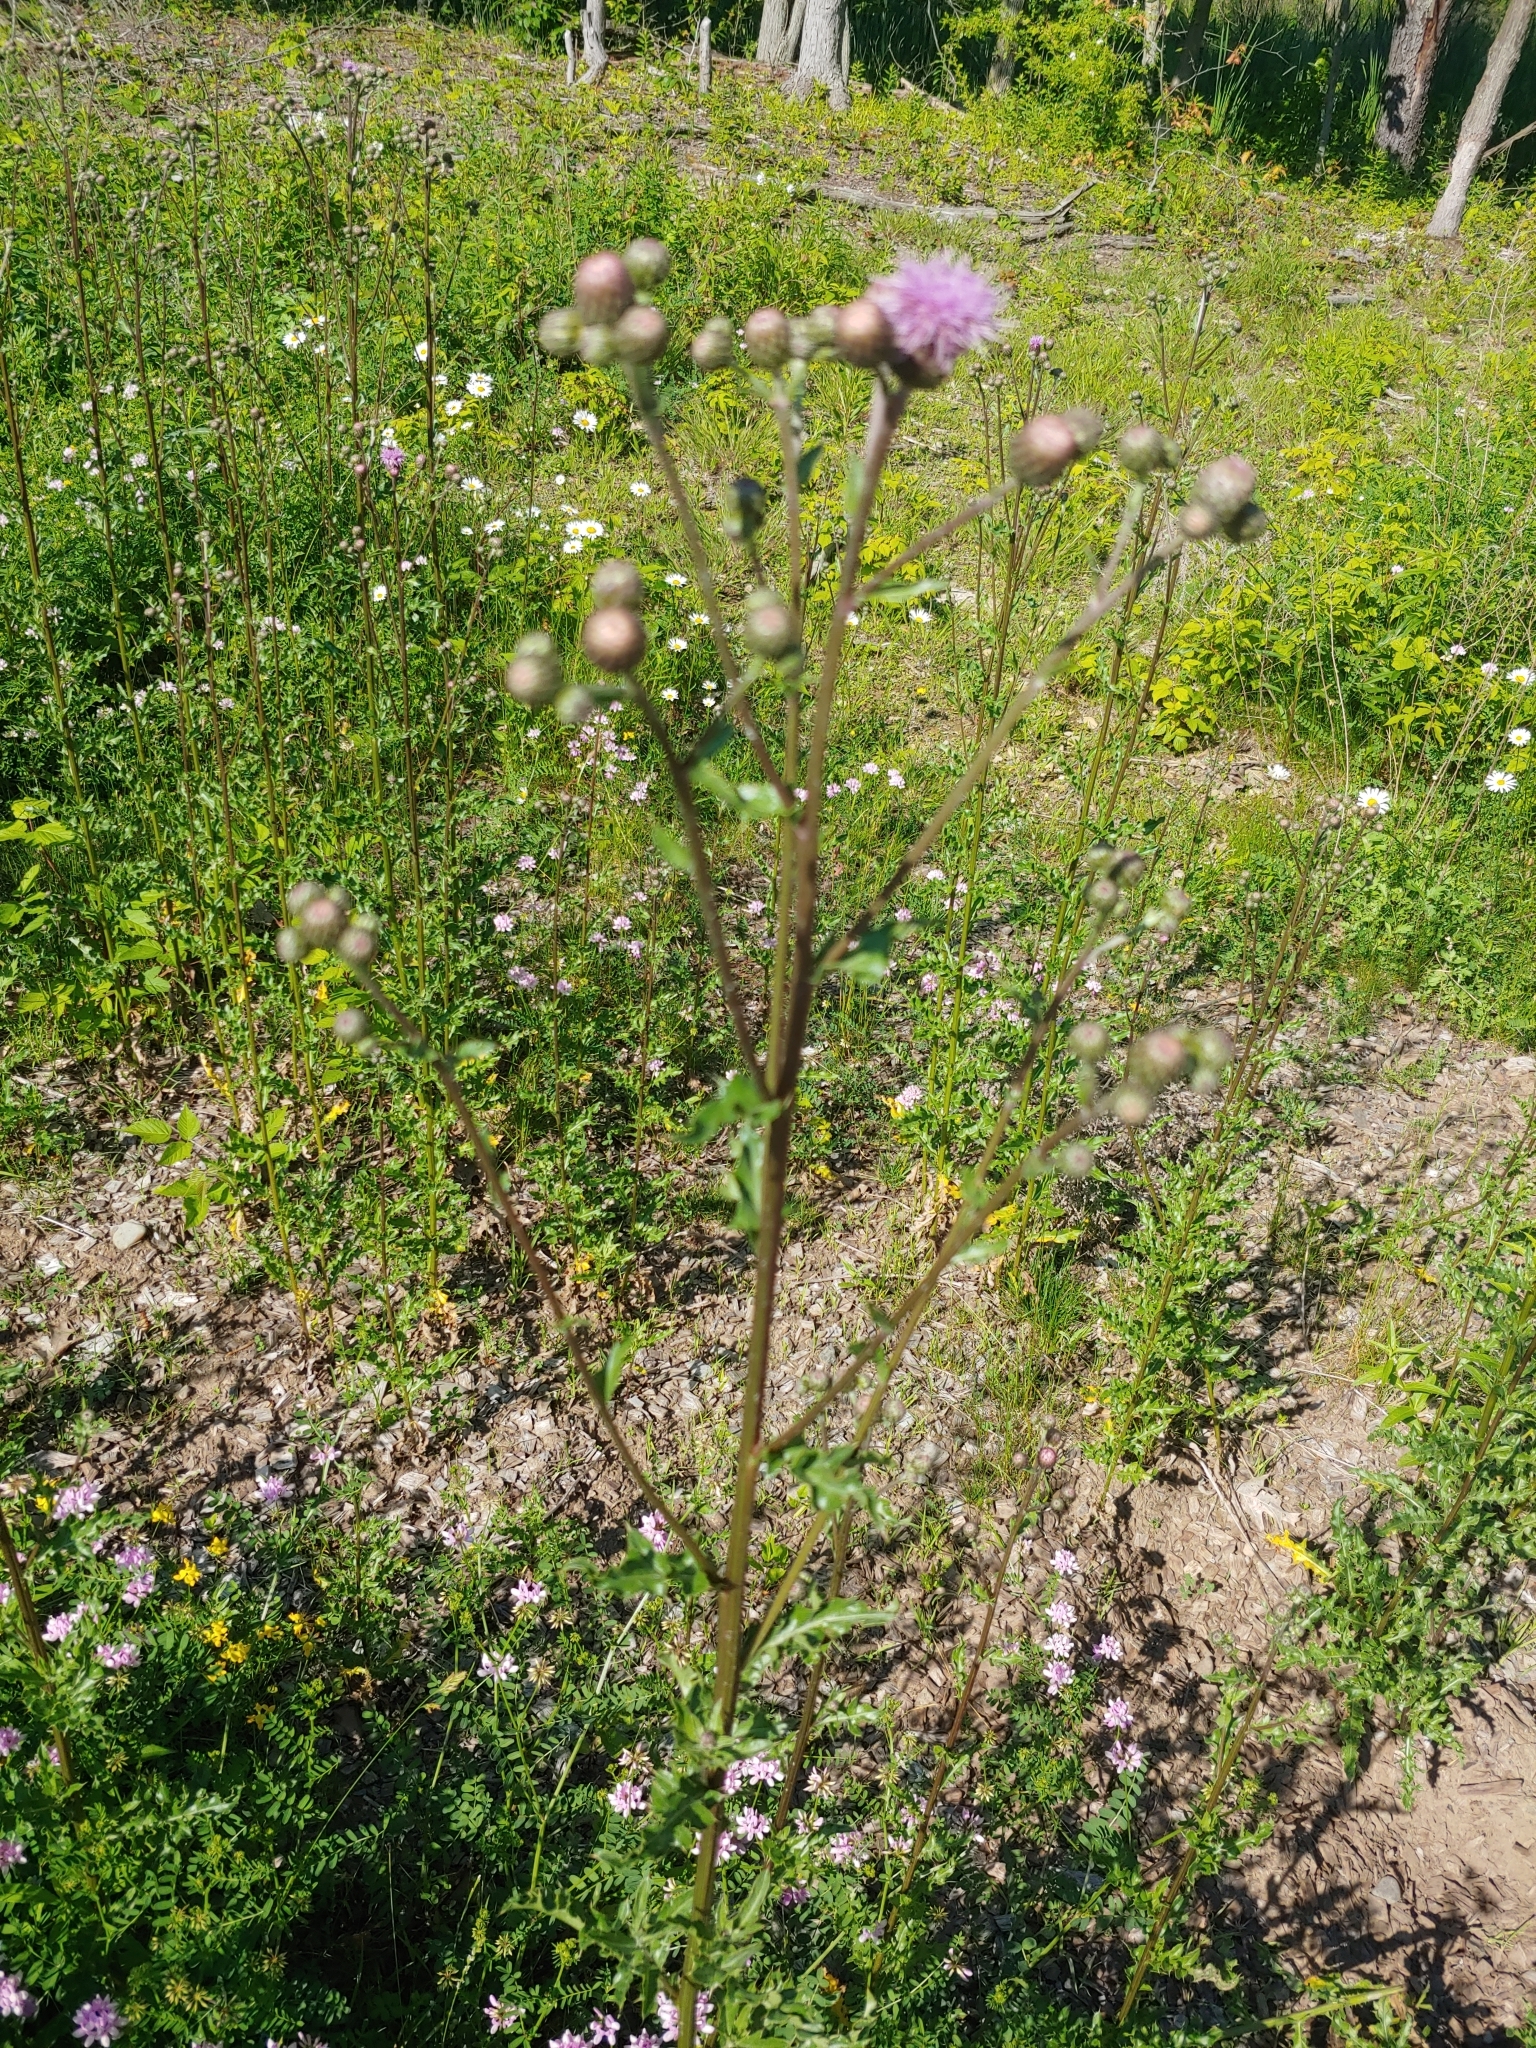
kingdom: Plantae
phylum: Tracheophyta
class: Magnoliopsida
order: Asterales
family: Asteraceae
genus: Cirsium
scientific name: Cirsium arvense
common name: Creeping thistle
